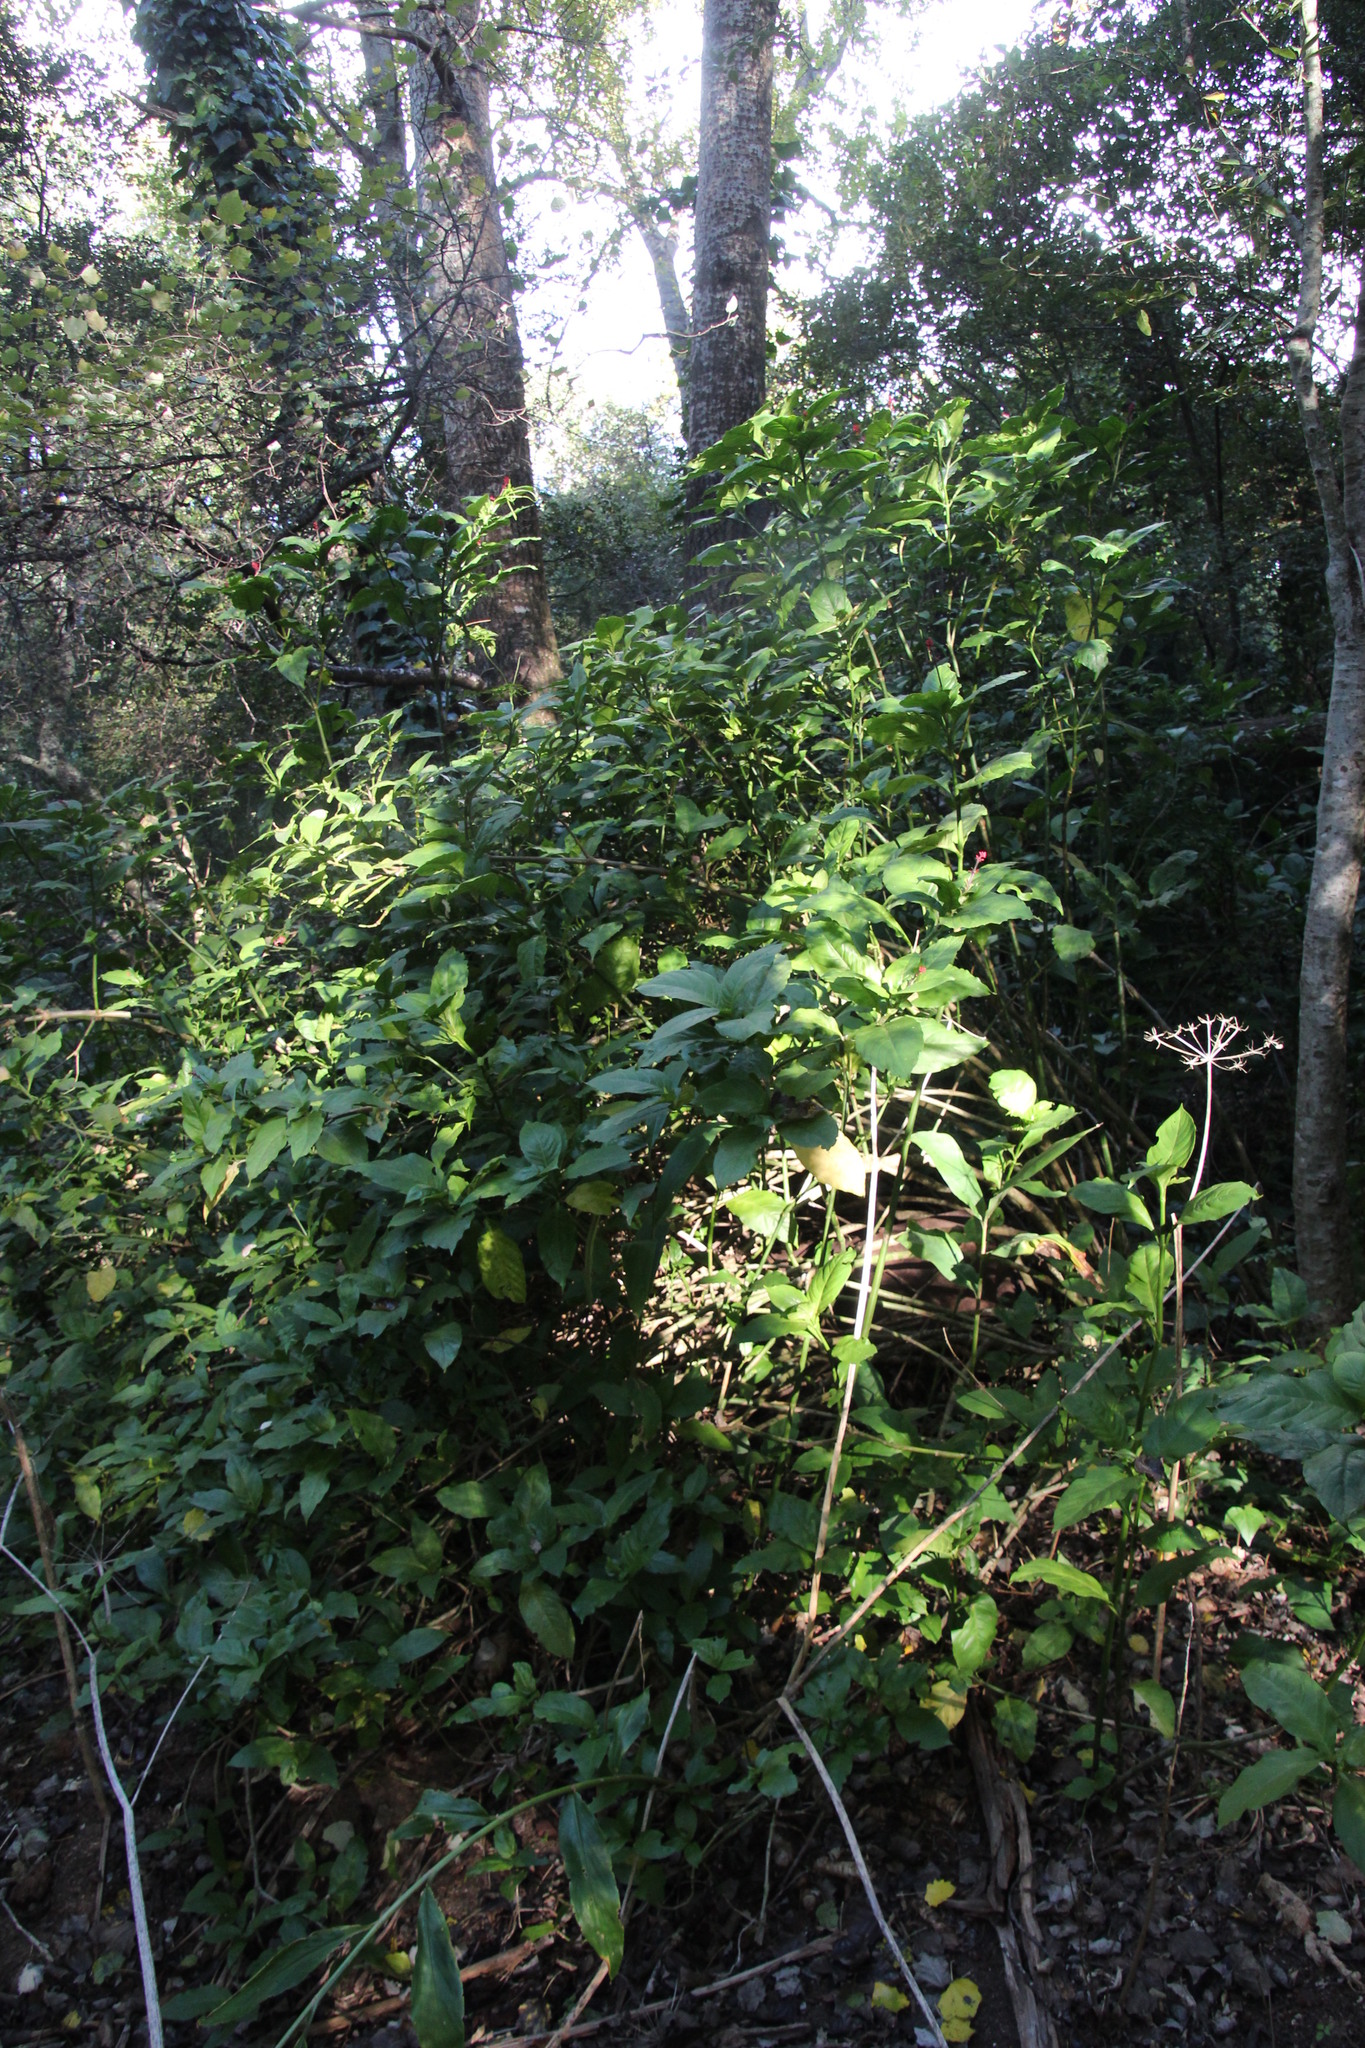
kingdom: Plantae
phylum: Tracheophyta
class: Magnoliopsida
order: Lamiales
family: Acanthaceae
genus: Odontonema
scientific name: Odontonema tubaeforme
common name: Firespike
